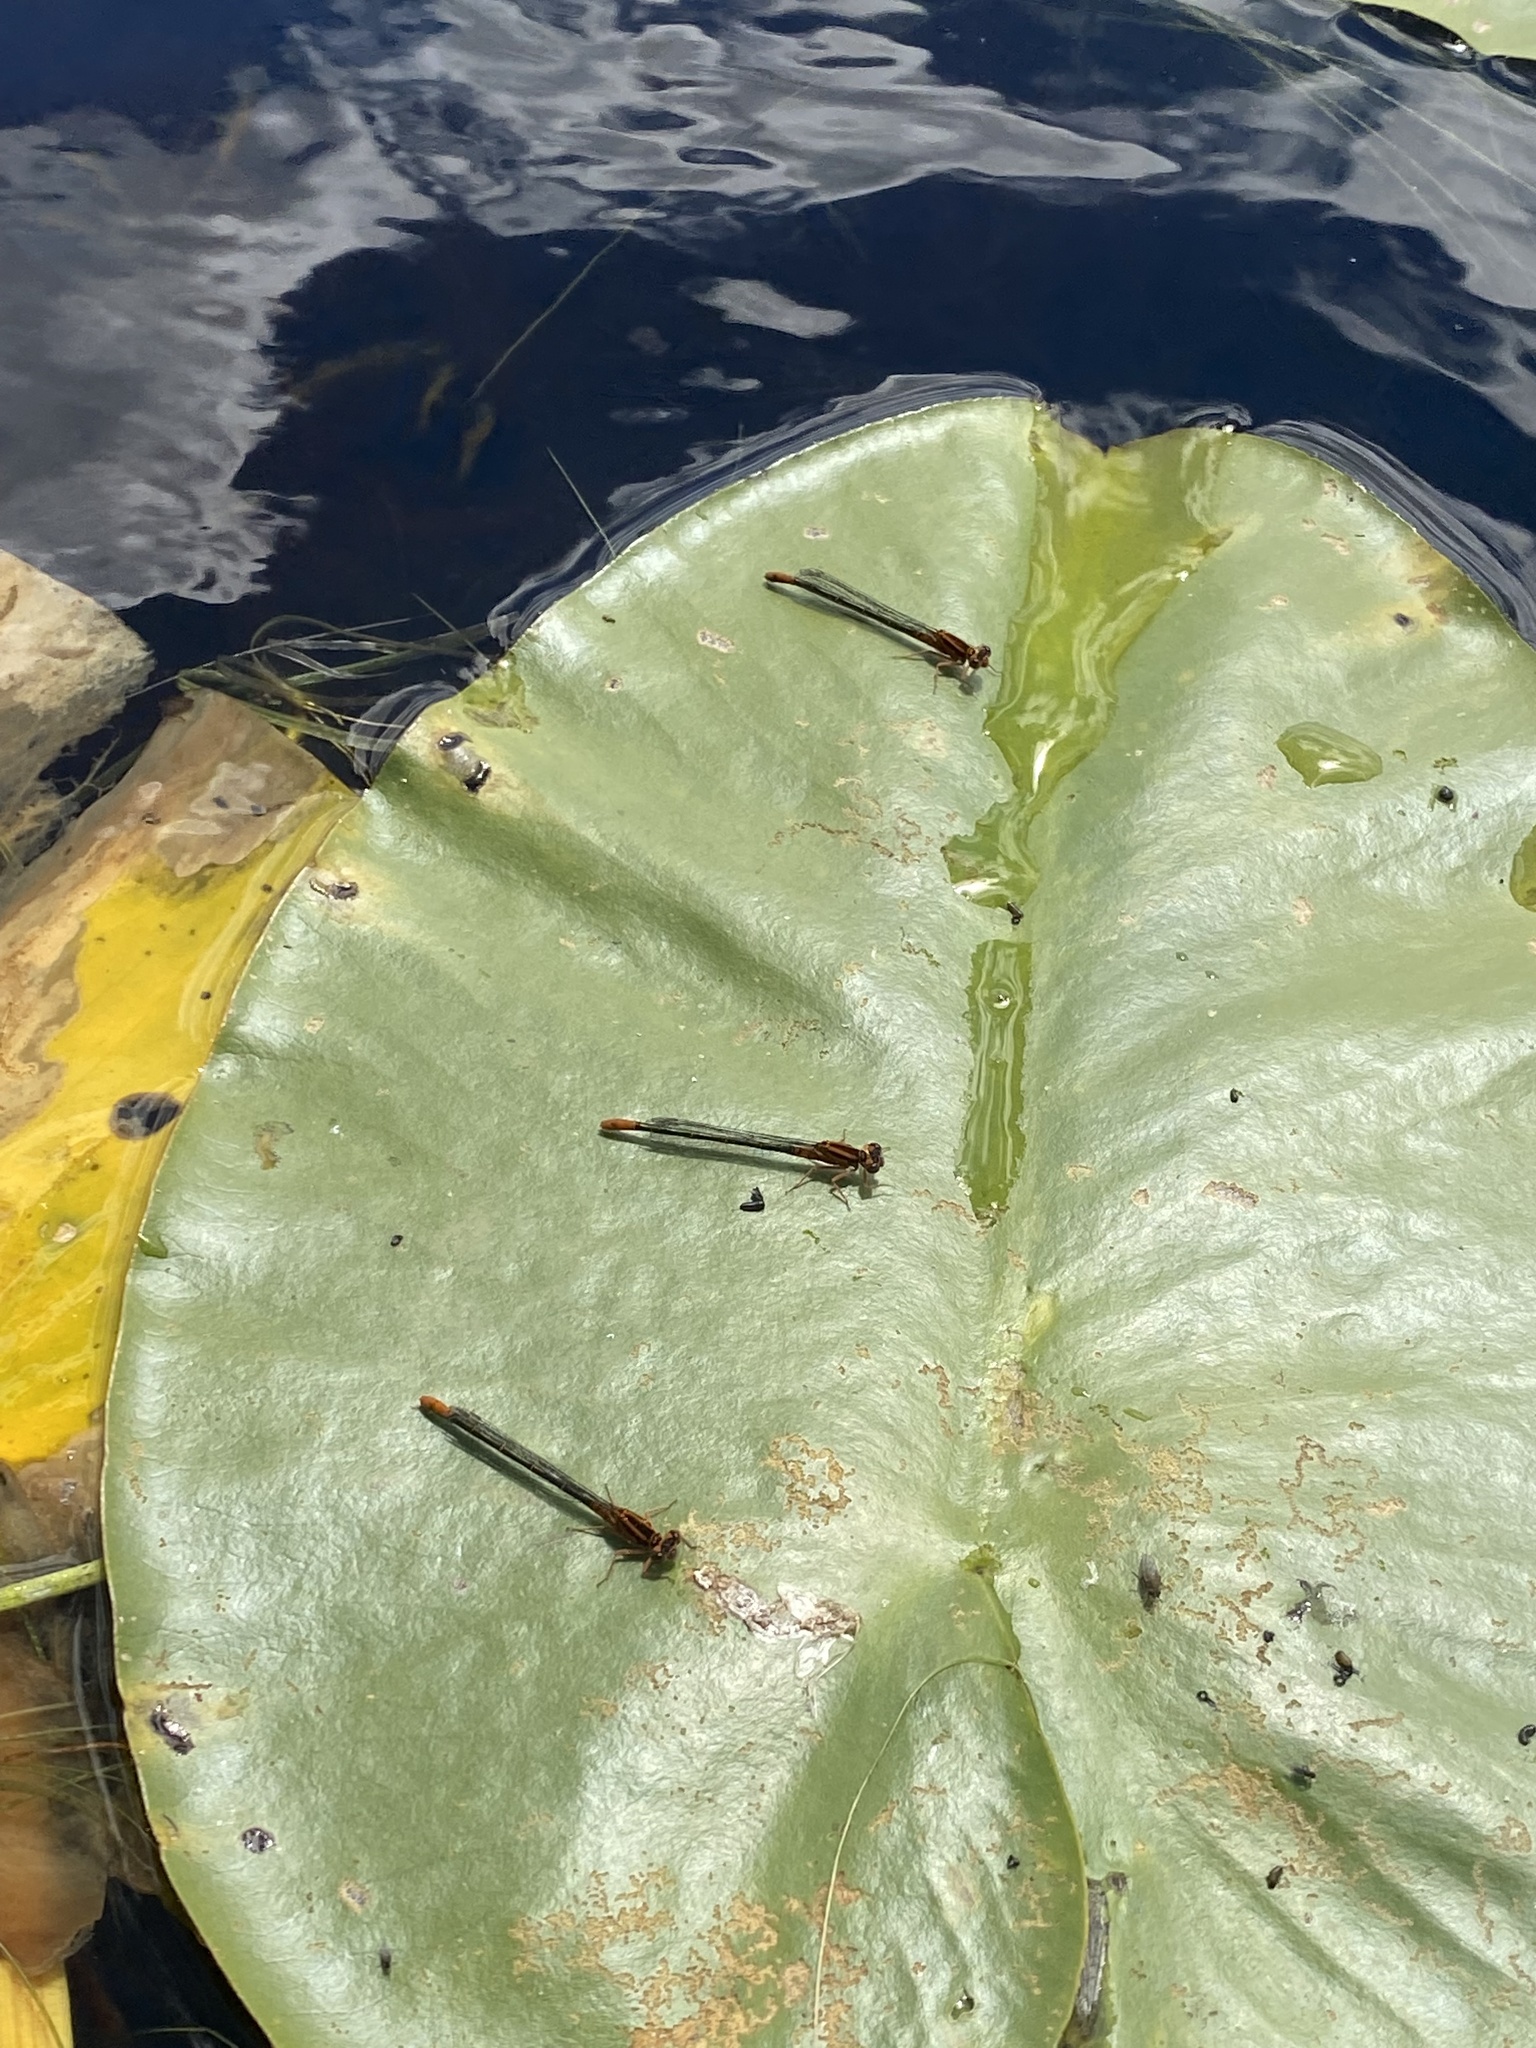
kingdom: Animalia
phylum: Arthropoda
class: Insecta
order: Odonata
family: Coenagrionidae
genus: Ischnura
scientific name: Ischnura kellicotti
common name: Lilypad forktail
